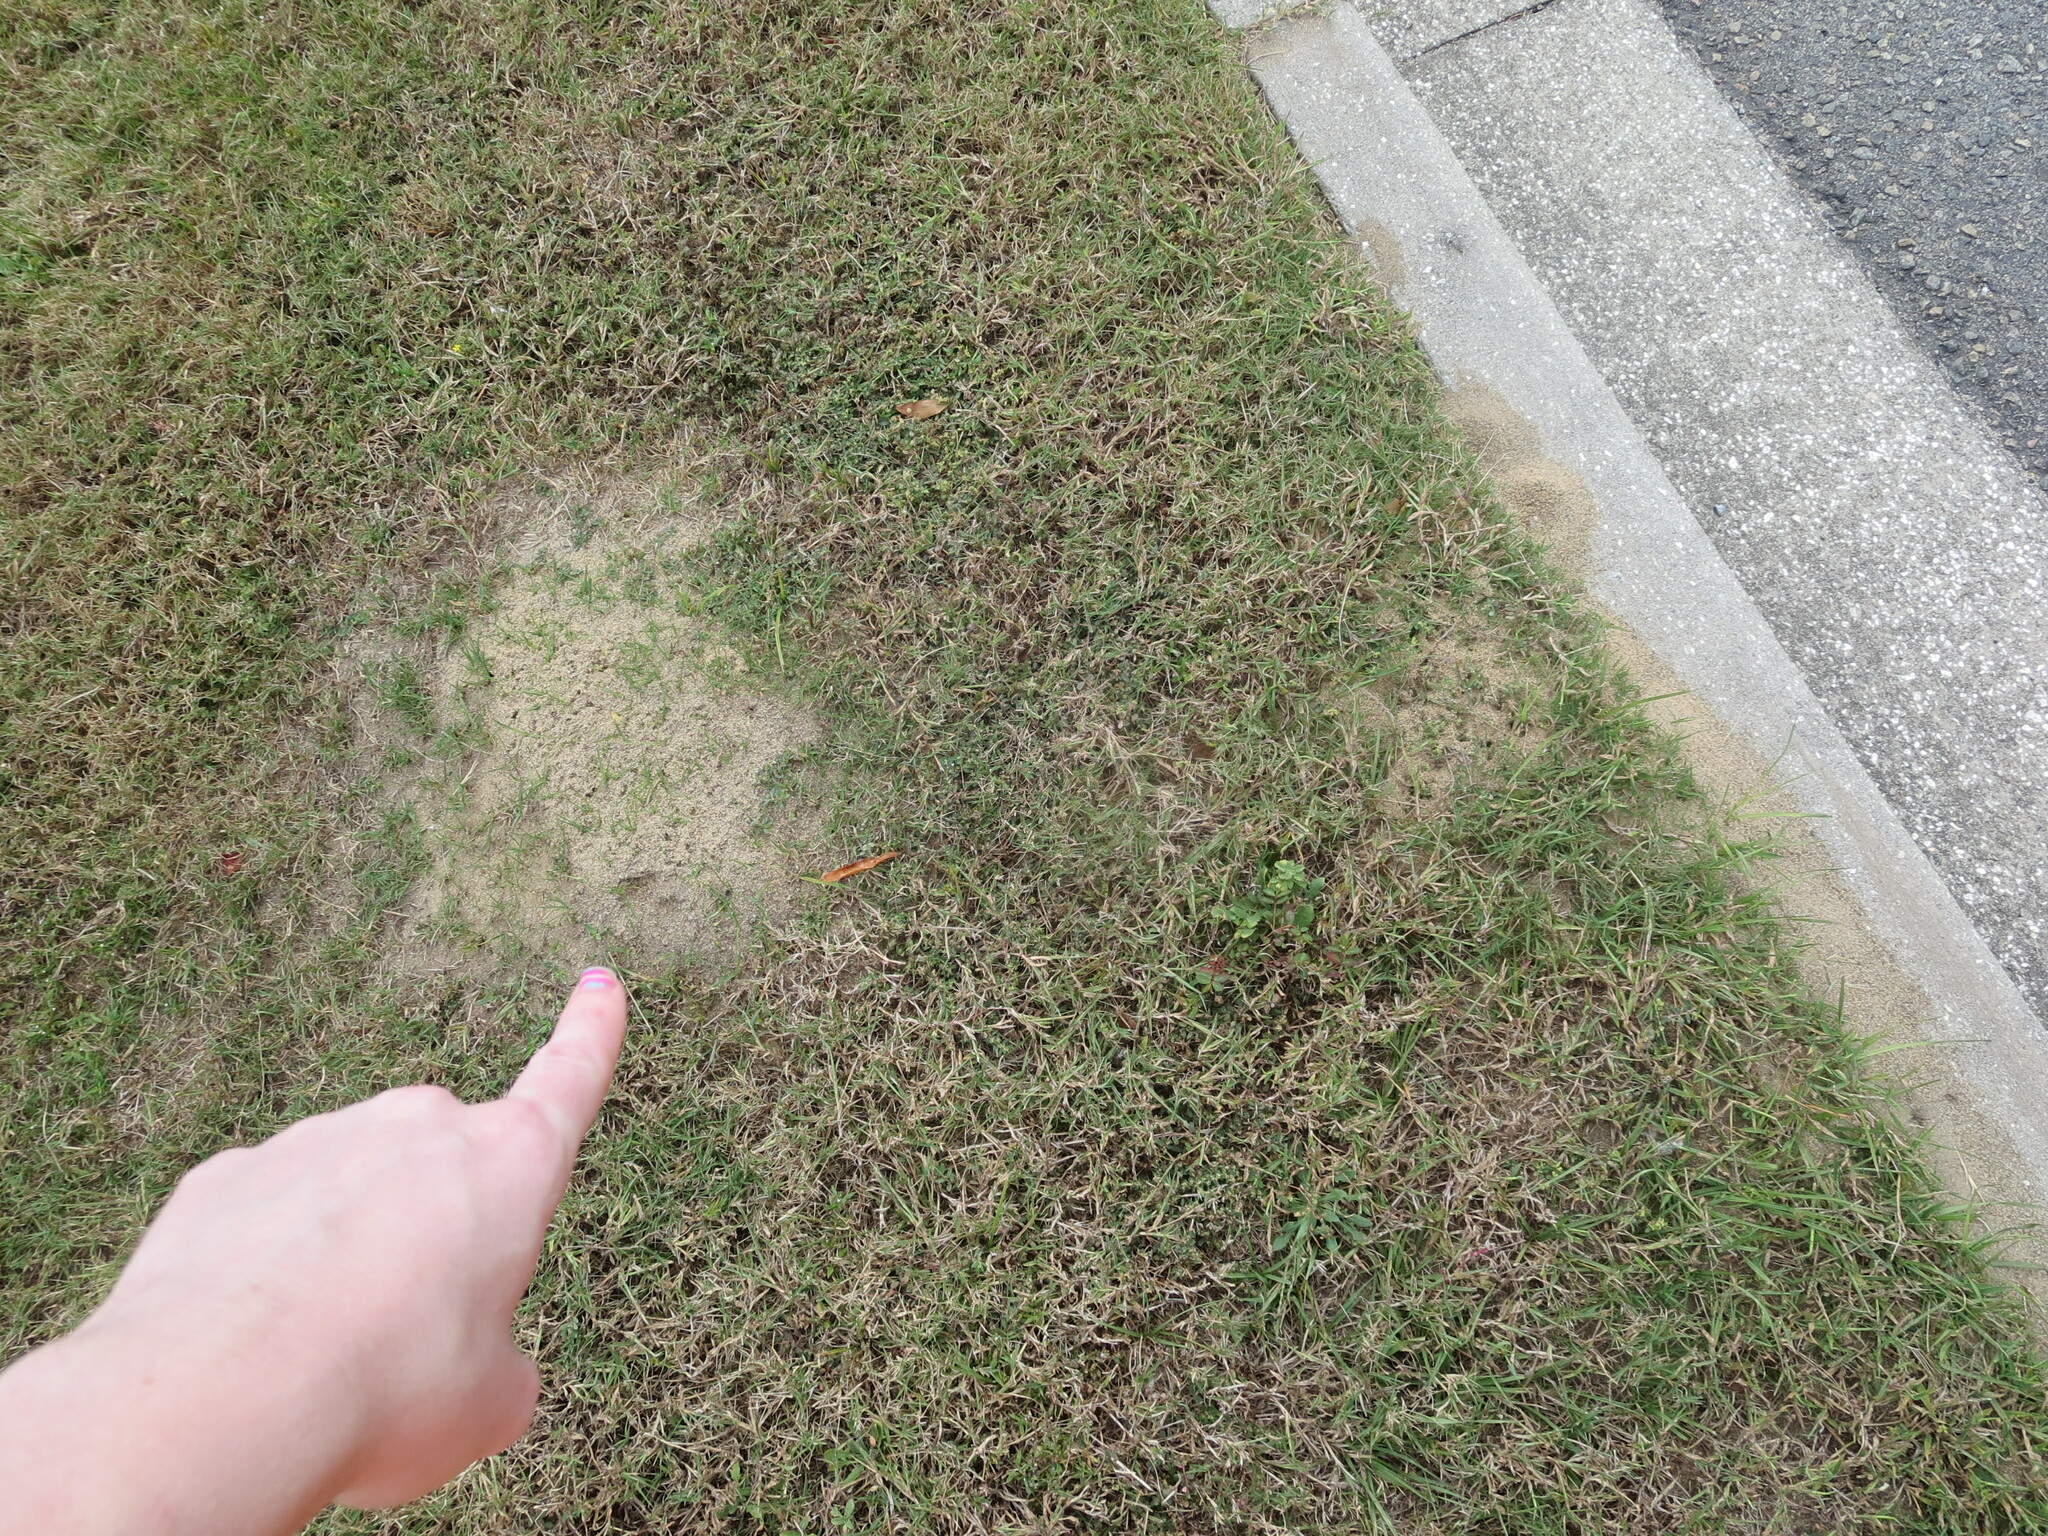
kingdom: Animalia
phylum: Arthropoda
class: Insecta
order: Hymenoptera
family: Formicidae
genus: Solenopsis
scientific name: Solenopsis invicta
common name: Red imported fire ant
